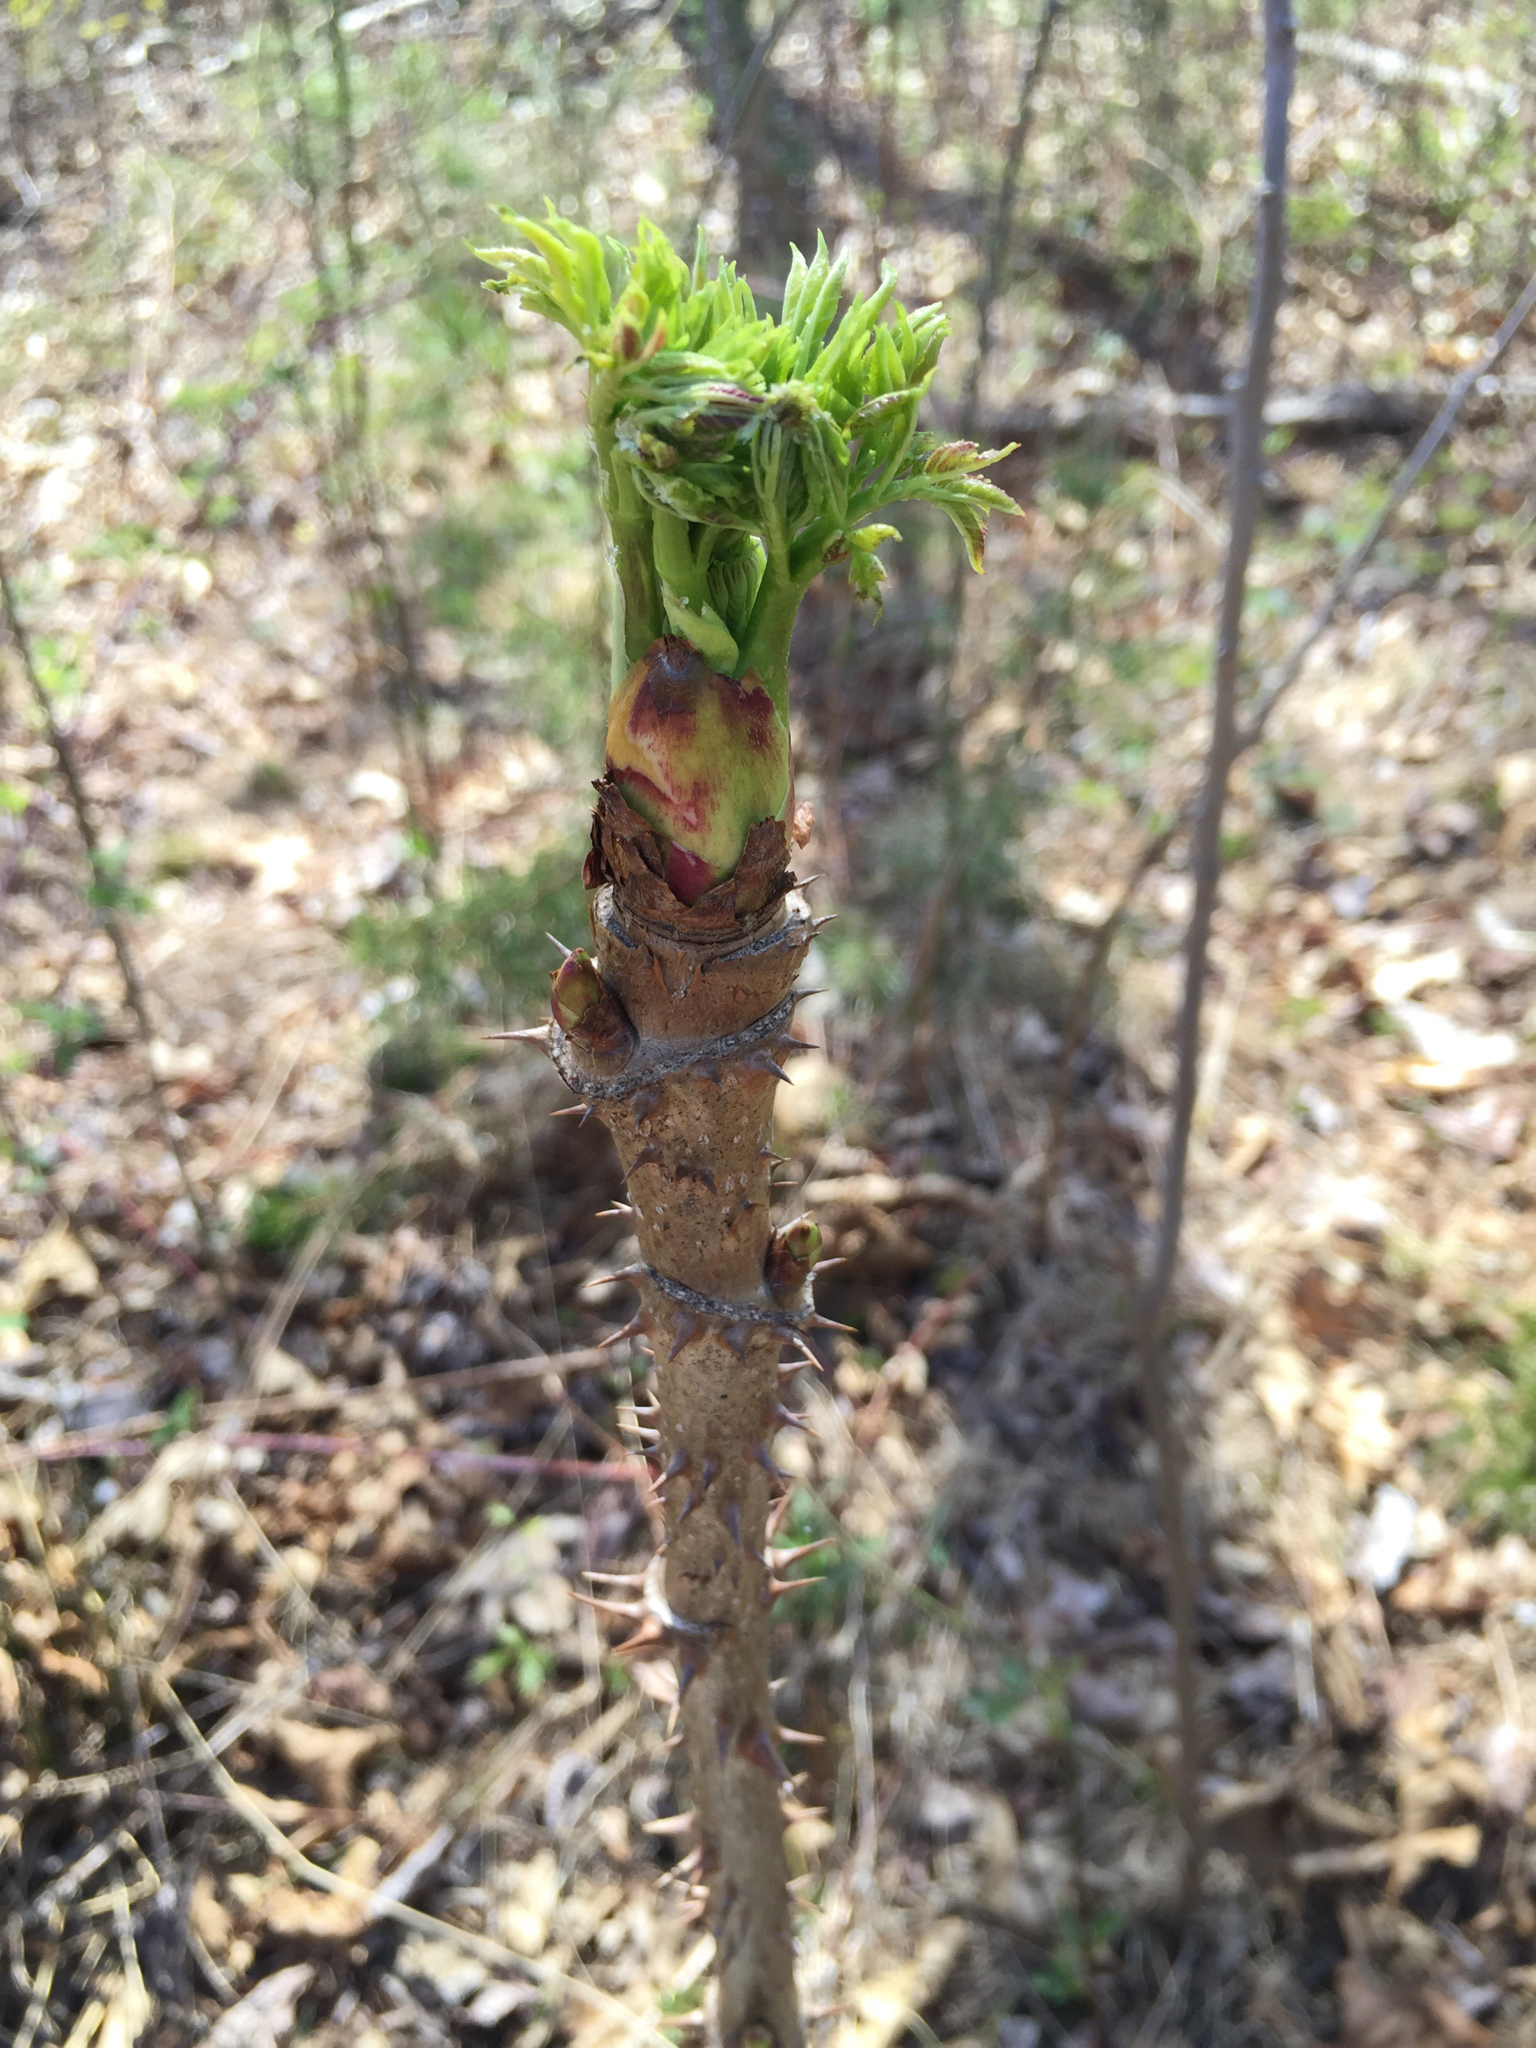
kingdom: Plantae
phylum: Tracheophyta
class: Magnoliopsida
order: Apiales
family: Araliaceae
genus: Aralia
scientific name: Aralia spinosa
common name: Hercules'-club
